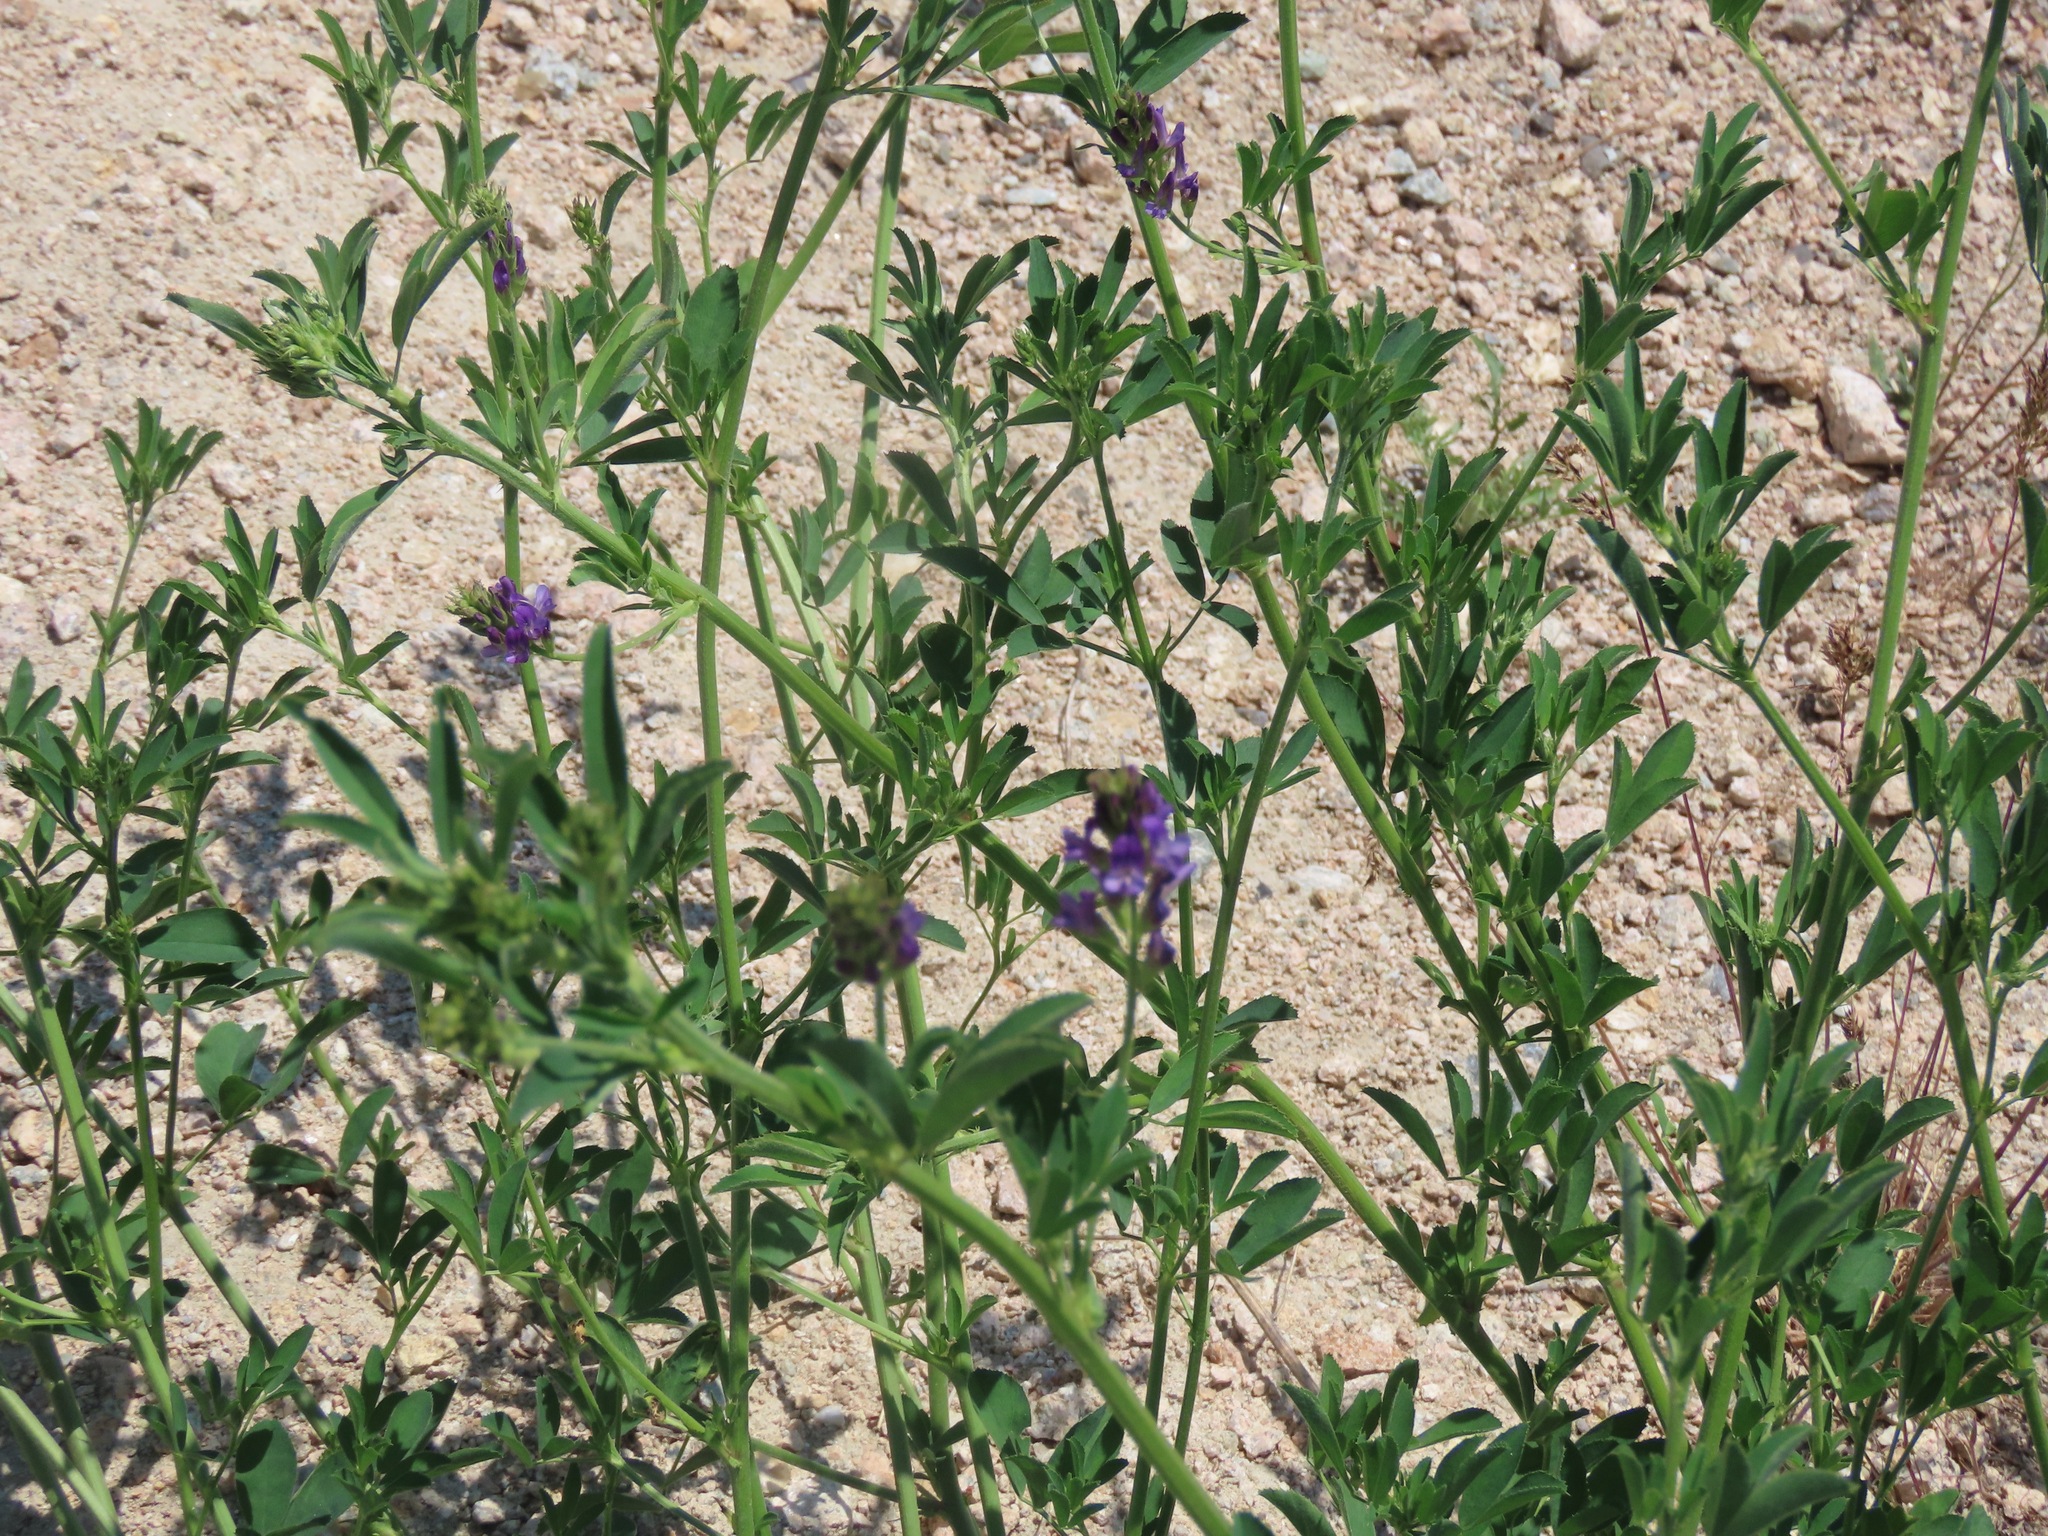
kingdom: Plantae
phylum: Tracheophyta
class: Magnoliopsida
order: Fabales
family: Fabaceae
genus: Medicago
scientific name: Medicago sativa
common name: Alfalfa
